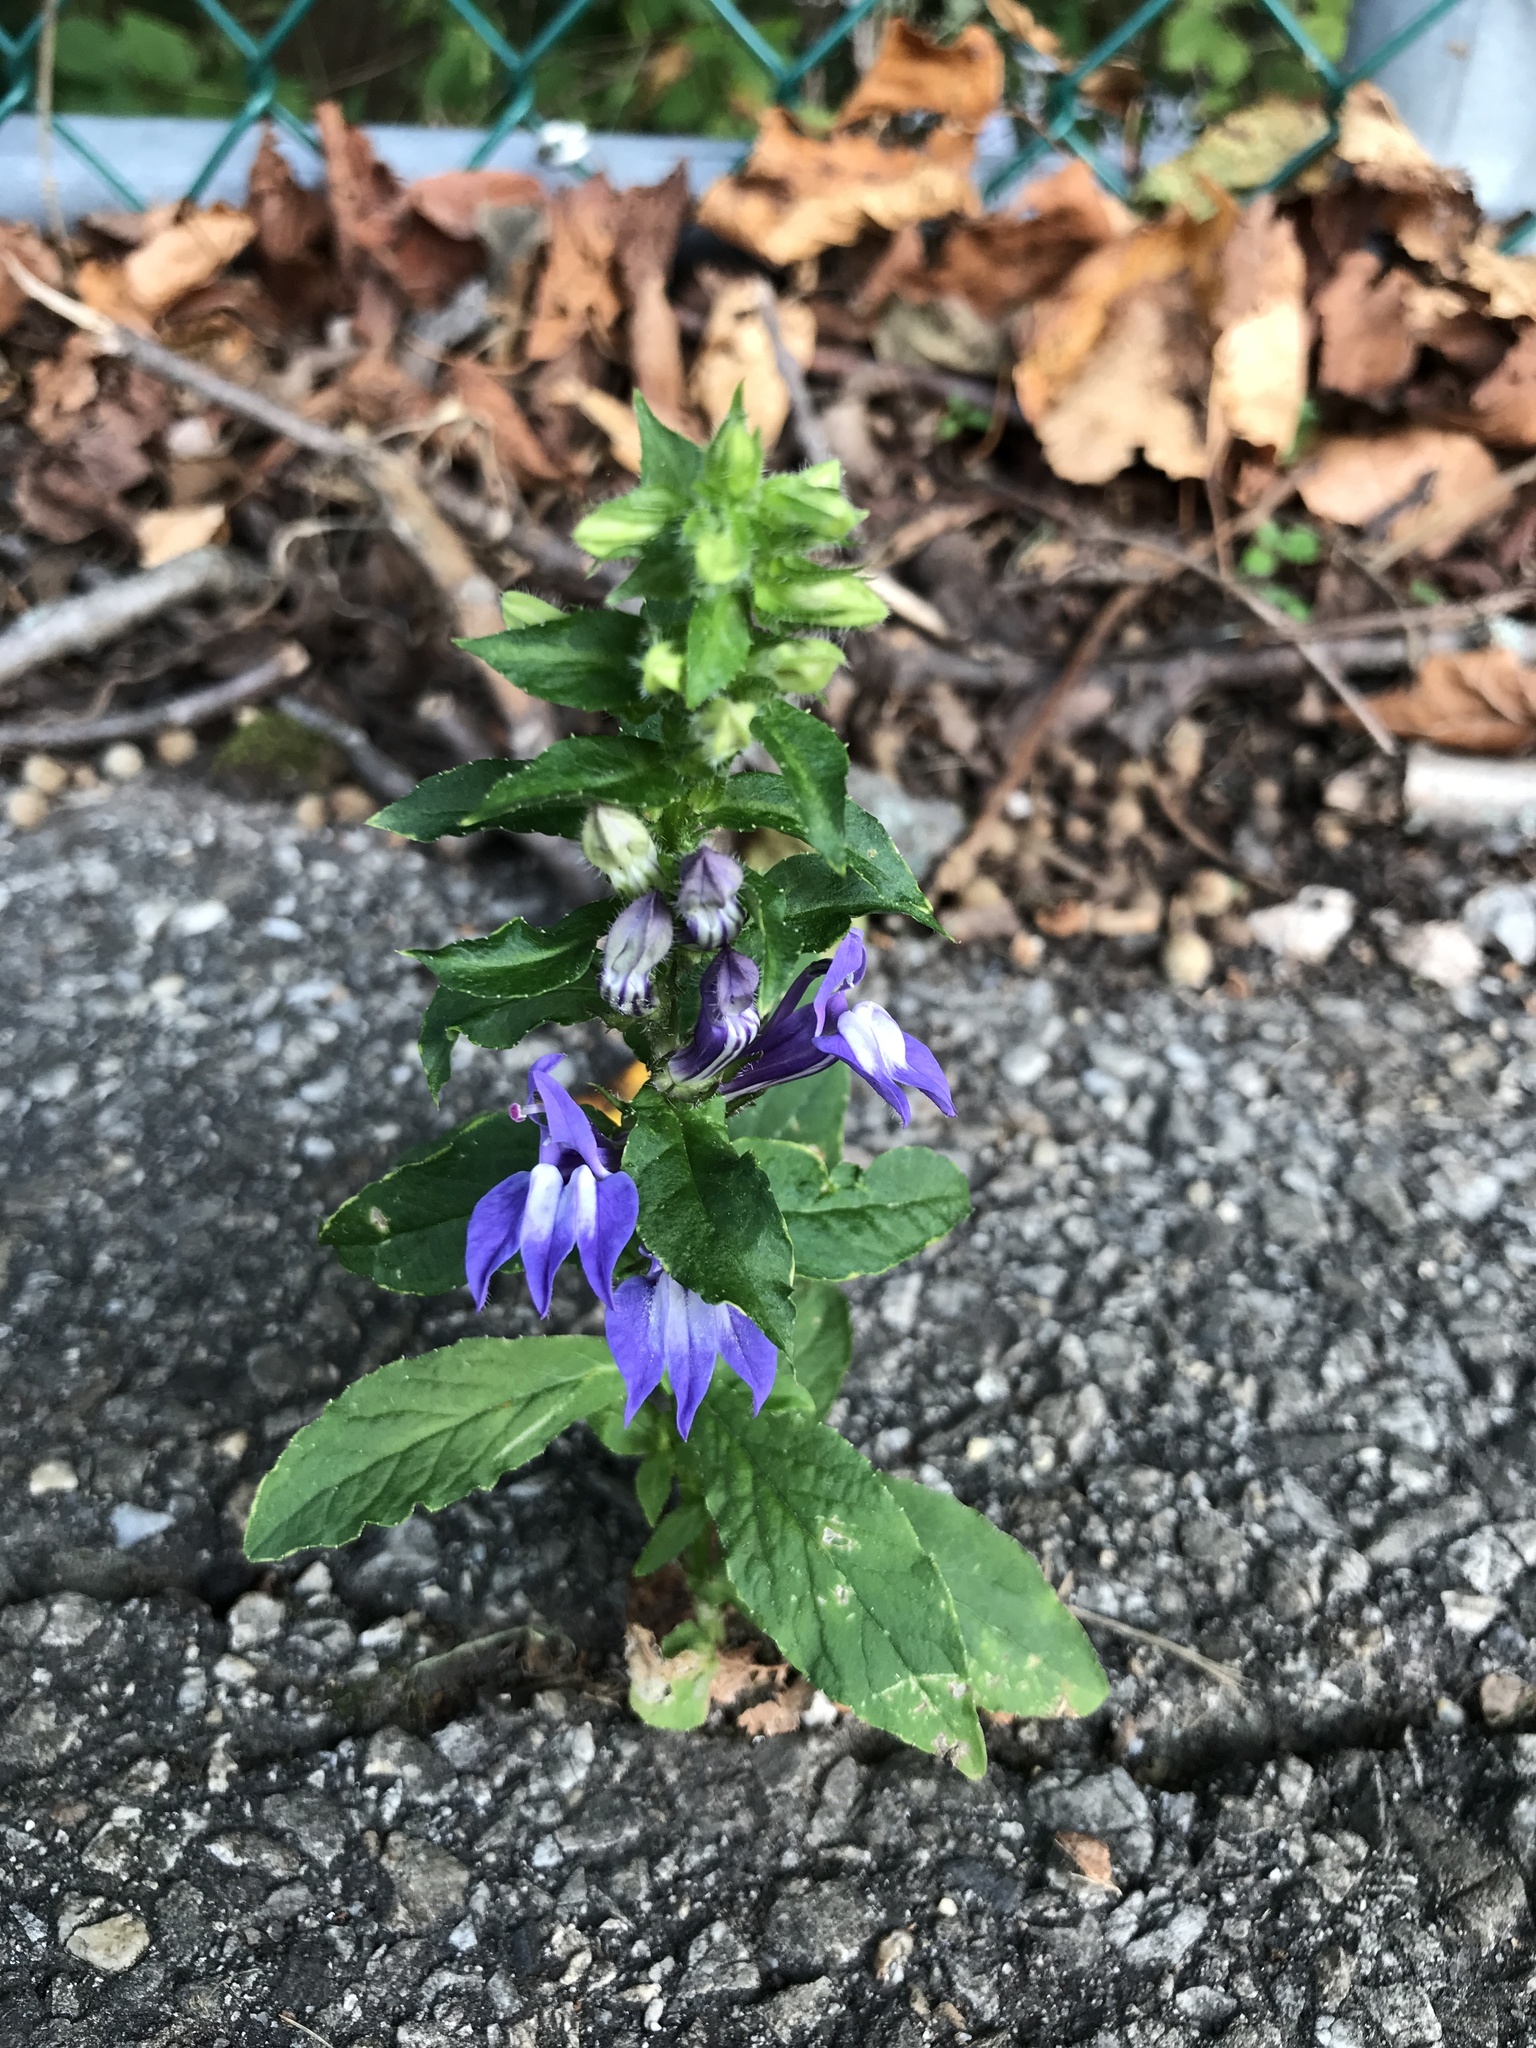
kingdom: Plantae
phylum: Tracheophyta
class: Magnoliopsida
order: Asterales
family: Campanulaceae
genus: Lobelia
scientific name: Lobelia siphilitica
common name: Great lobelia
